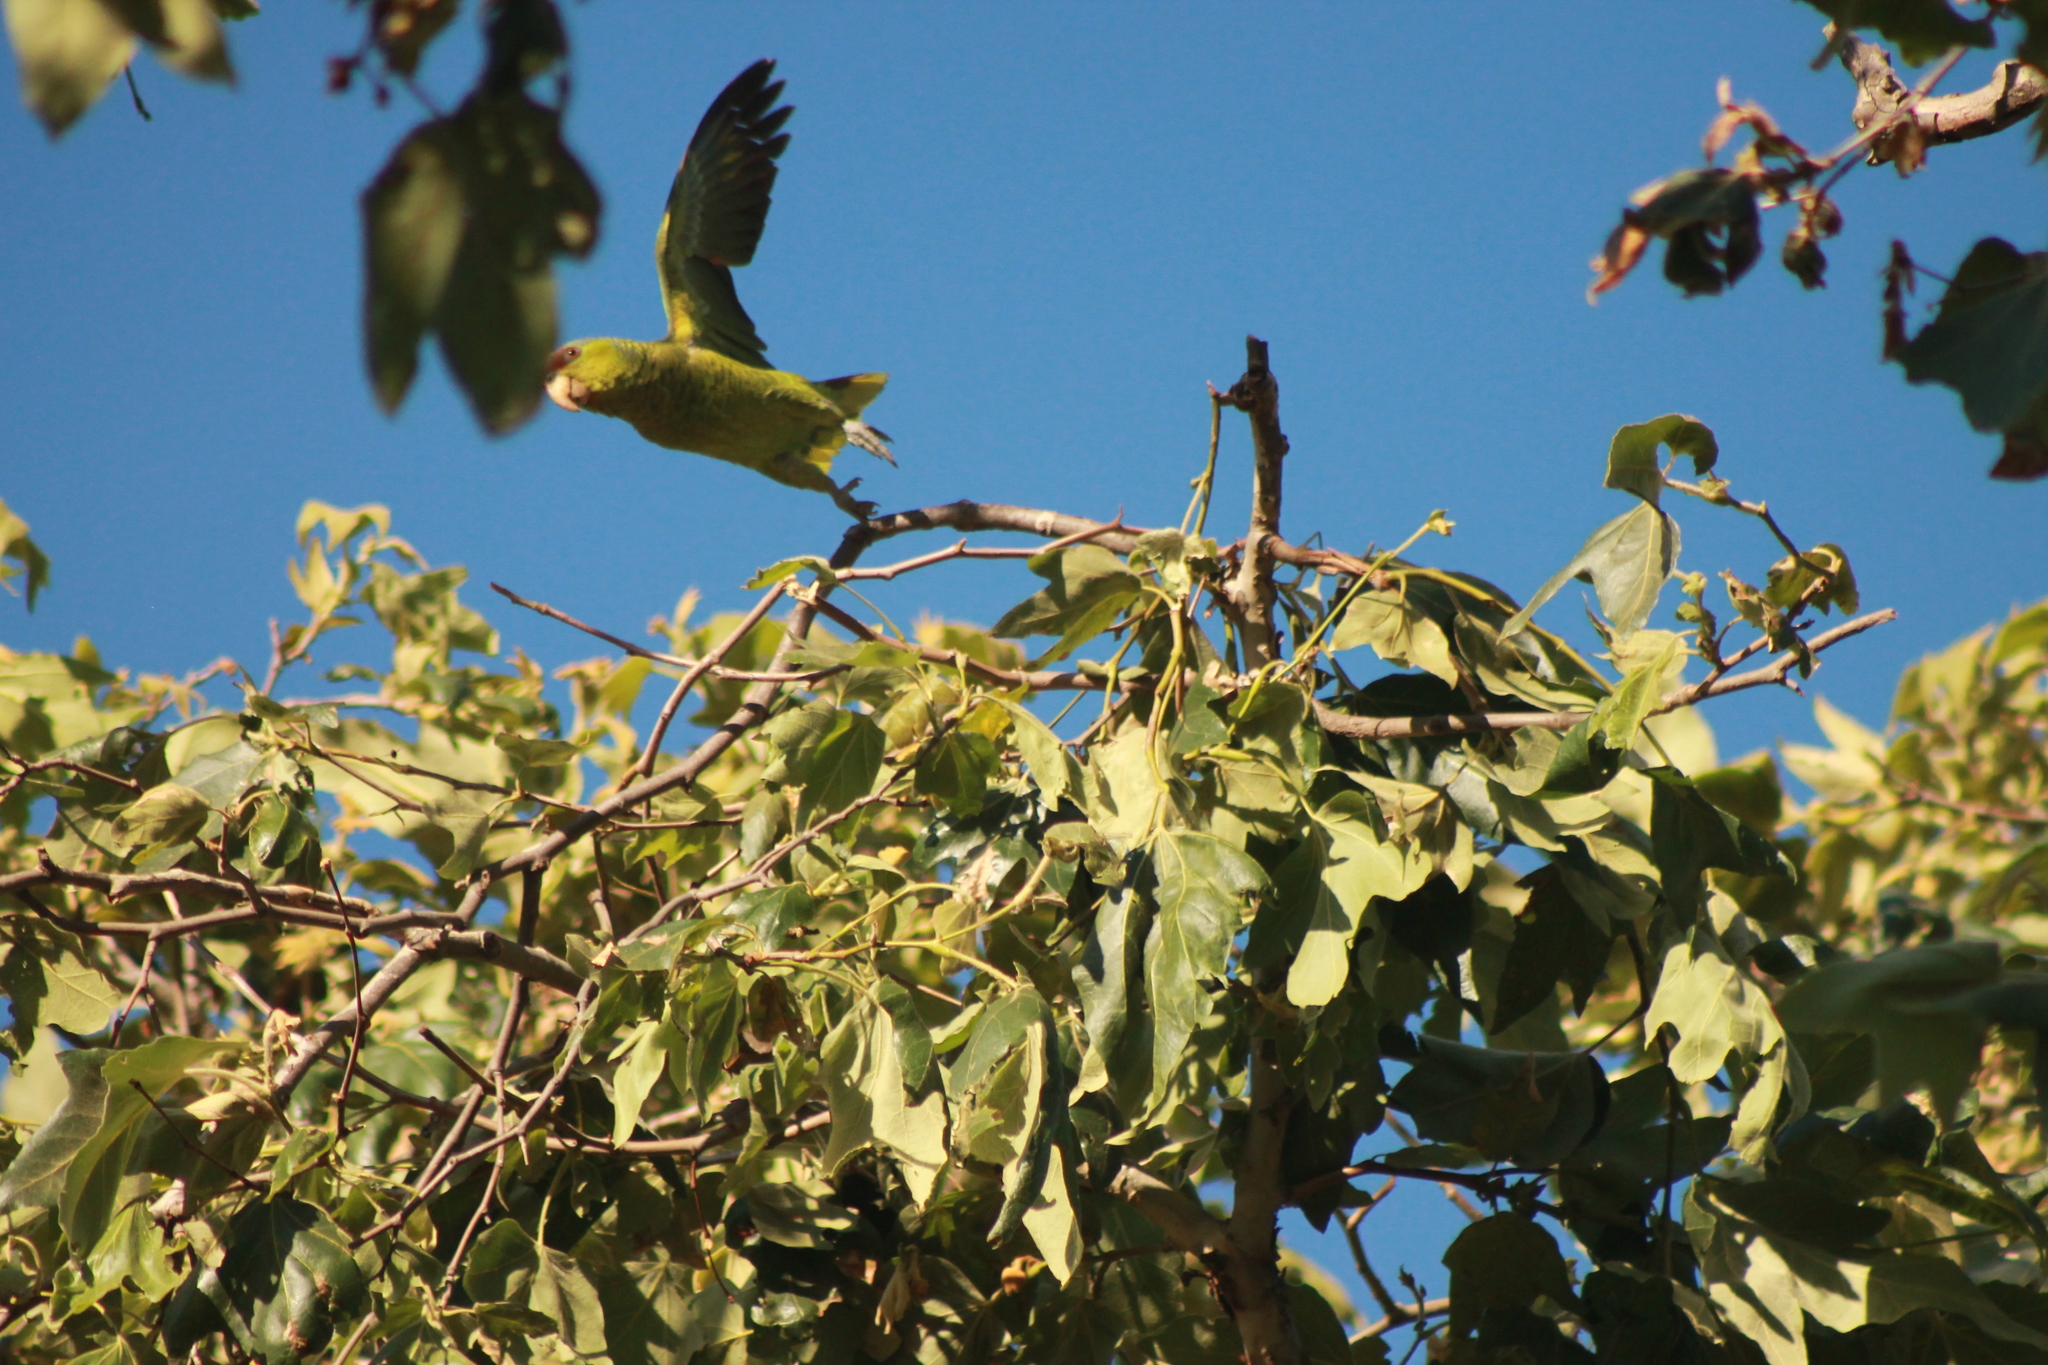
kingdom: Animalia
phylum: Chordata
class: Aves
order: Psittaciformes
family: Psittacidae
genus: Amazona
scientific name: Amazona finschi
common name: Lilac-crowned amazon
